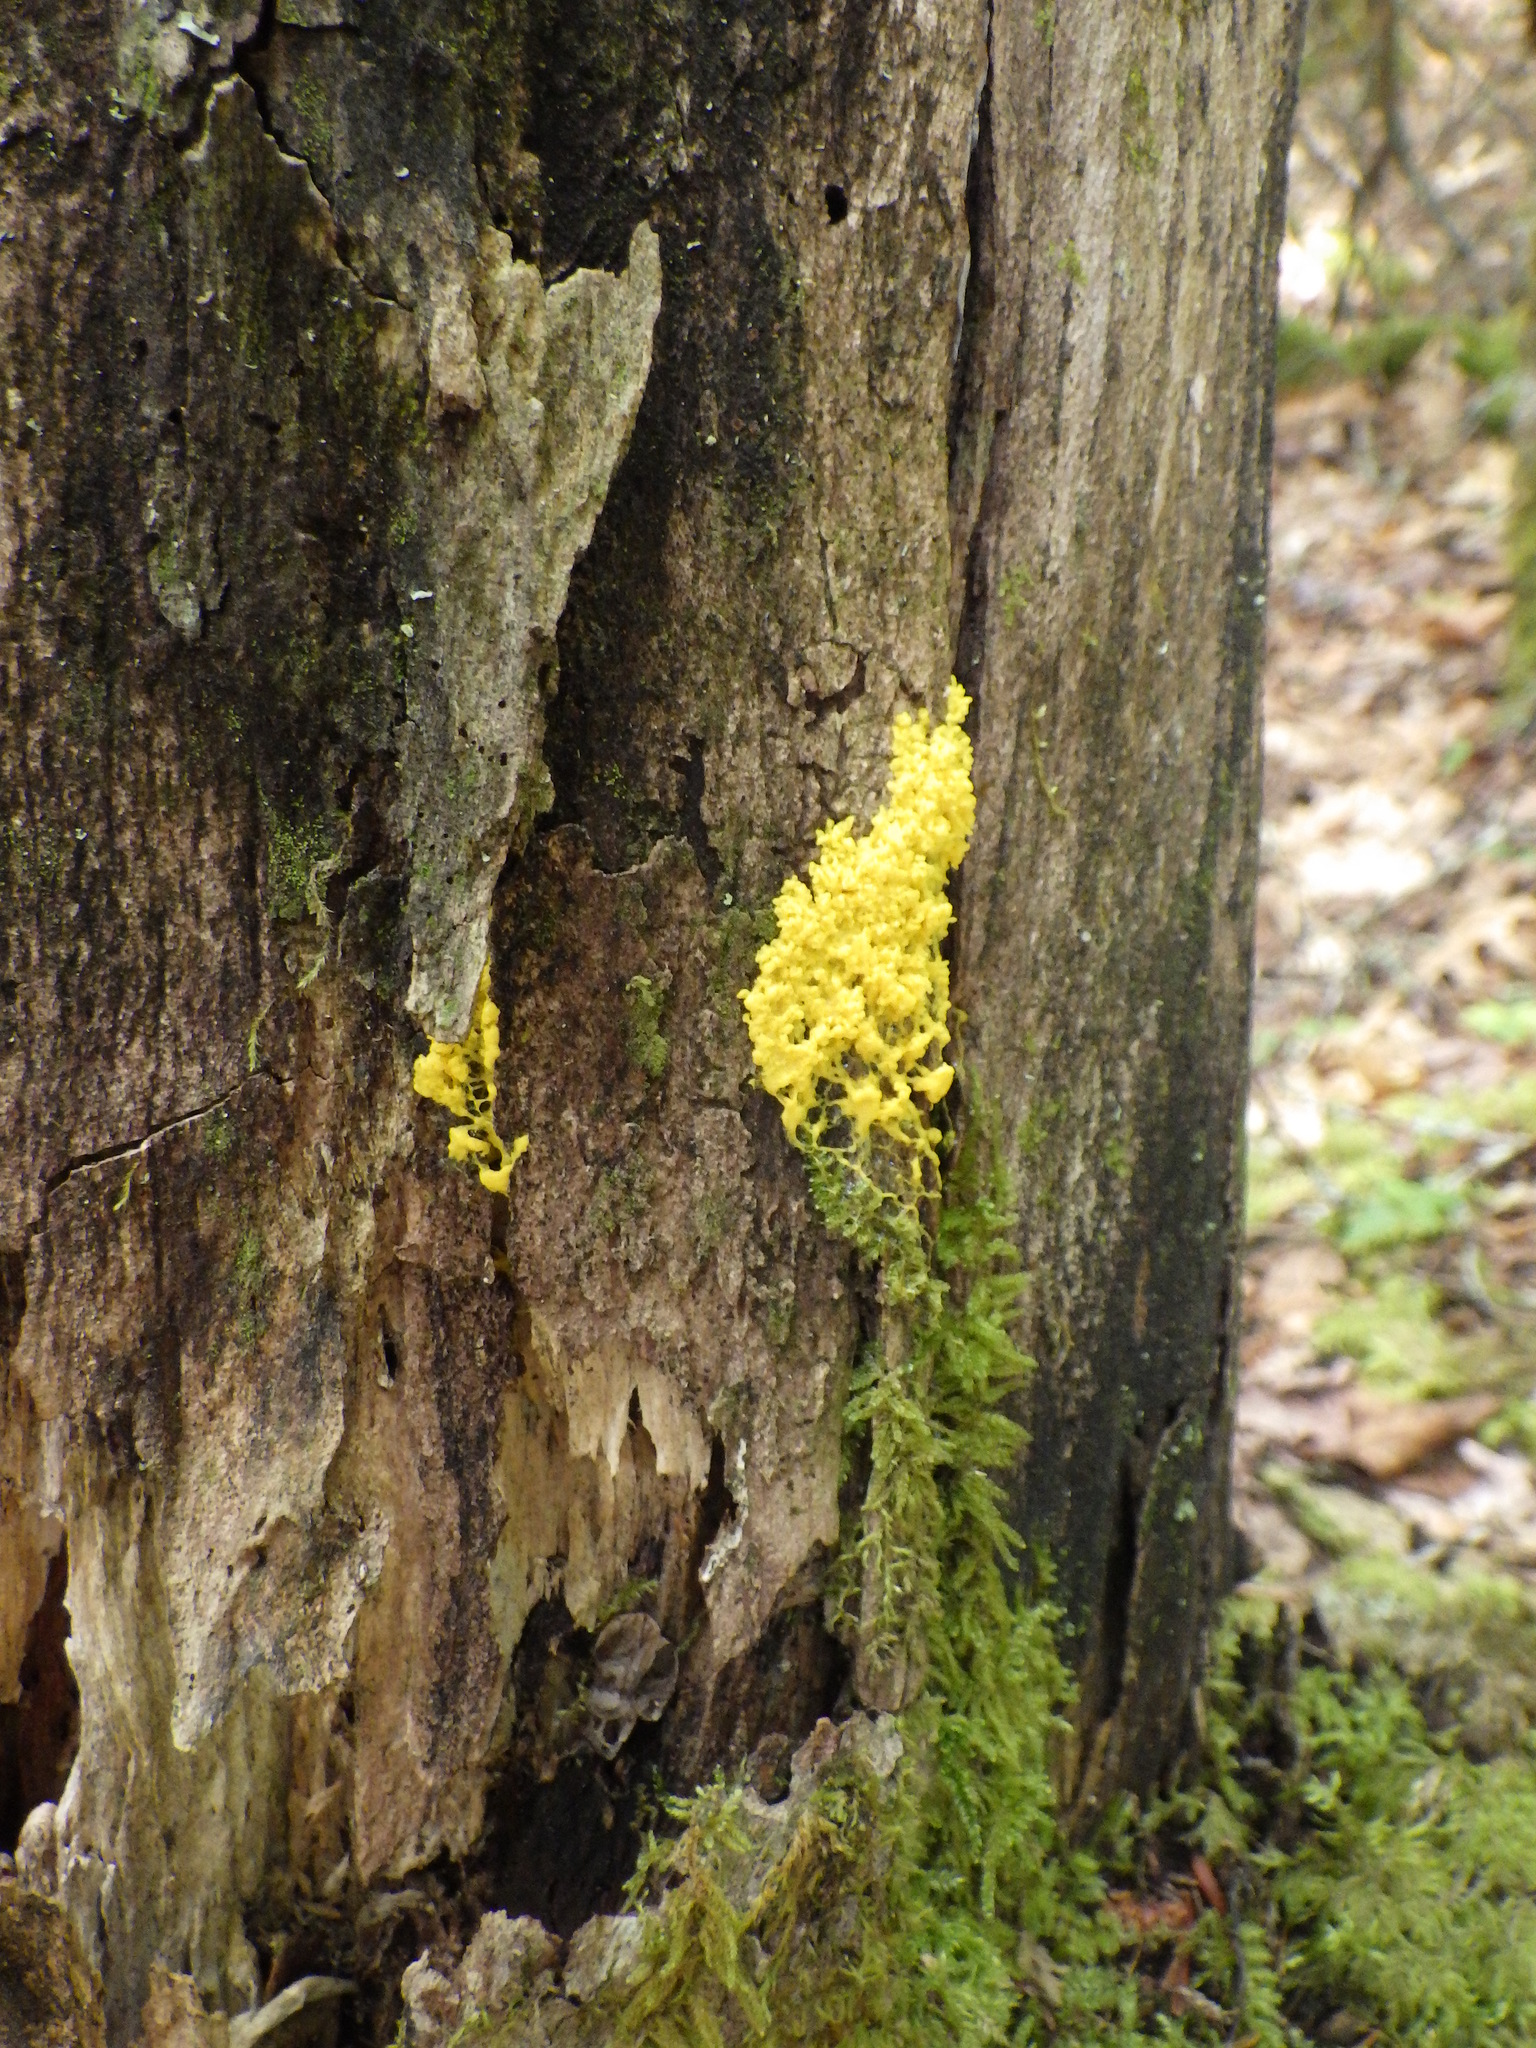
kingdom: Protozoa
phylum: Mycetozoa
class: Myxomycetes
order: Physarales
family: Physaraceae
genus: Fuligo
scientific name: Fuligo septica
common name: Dog vomit slime mold
